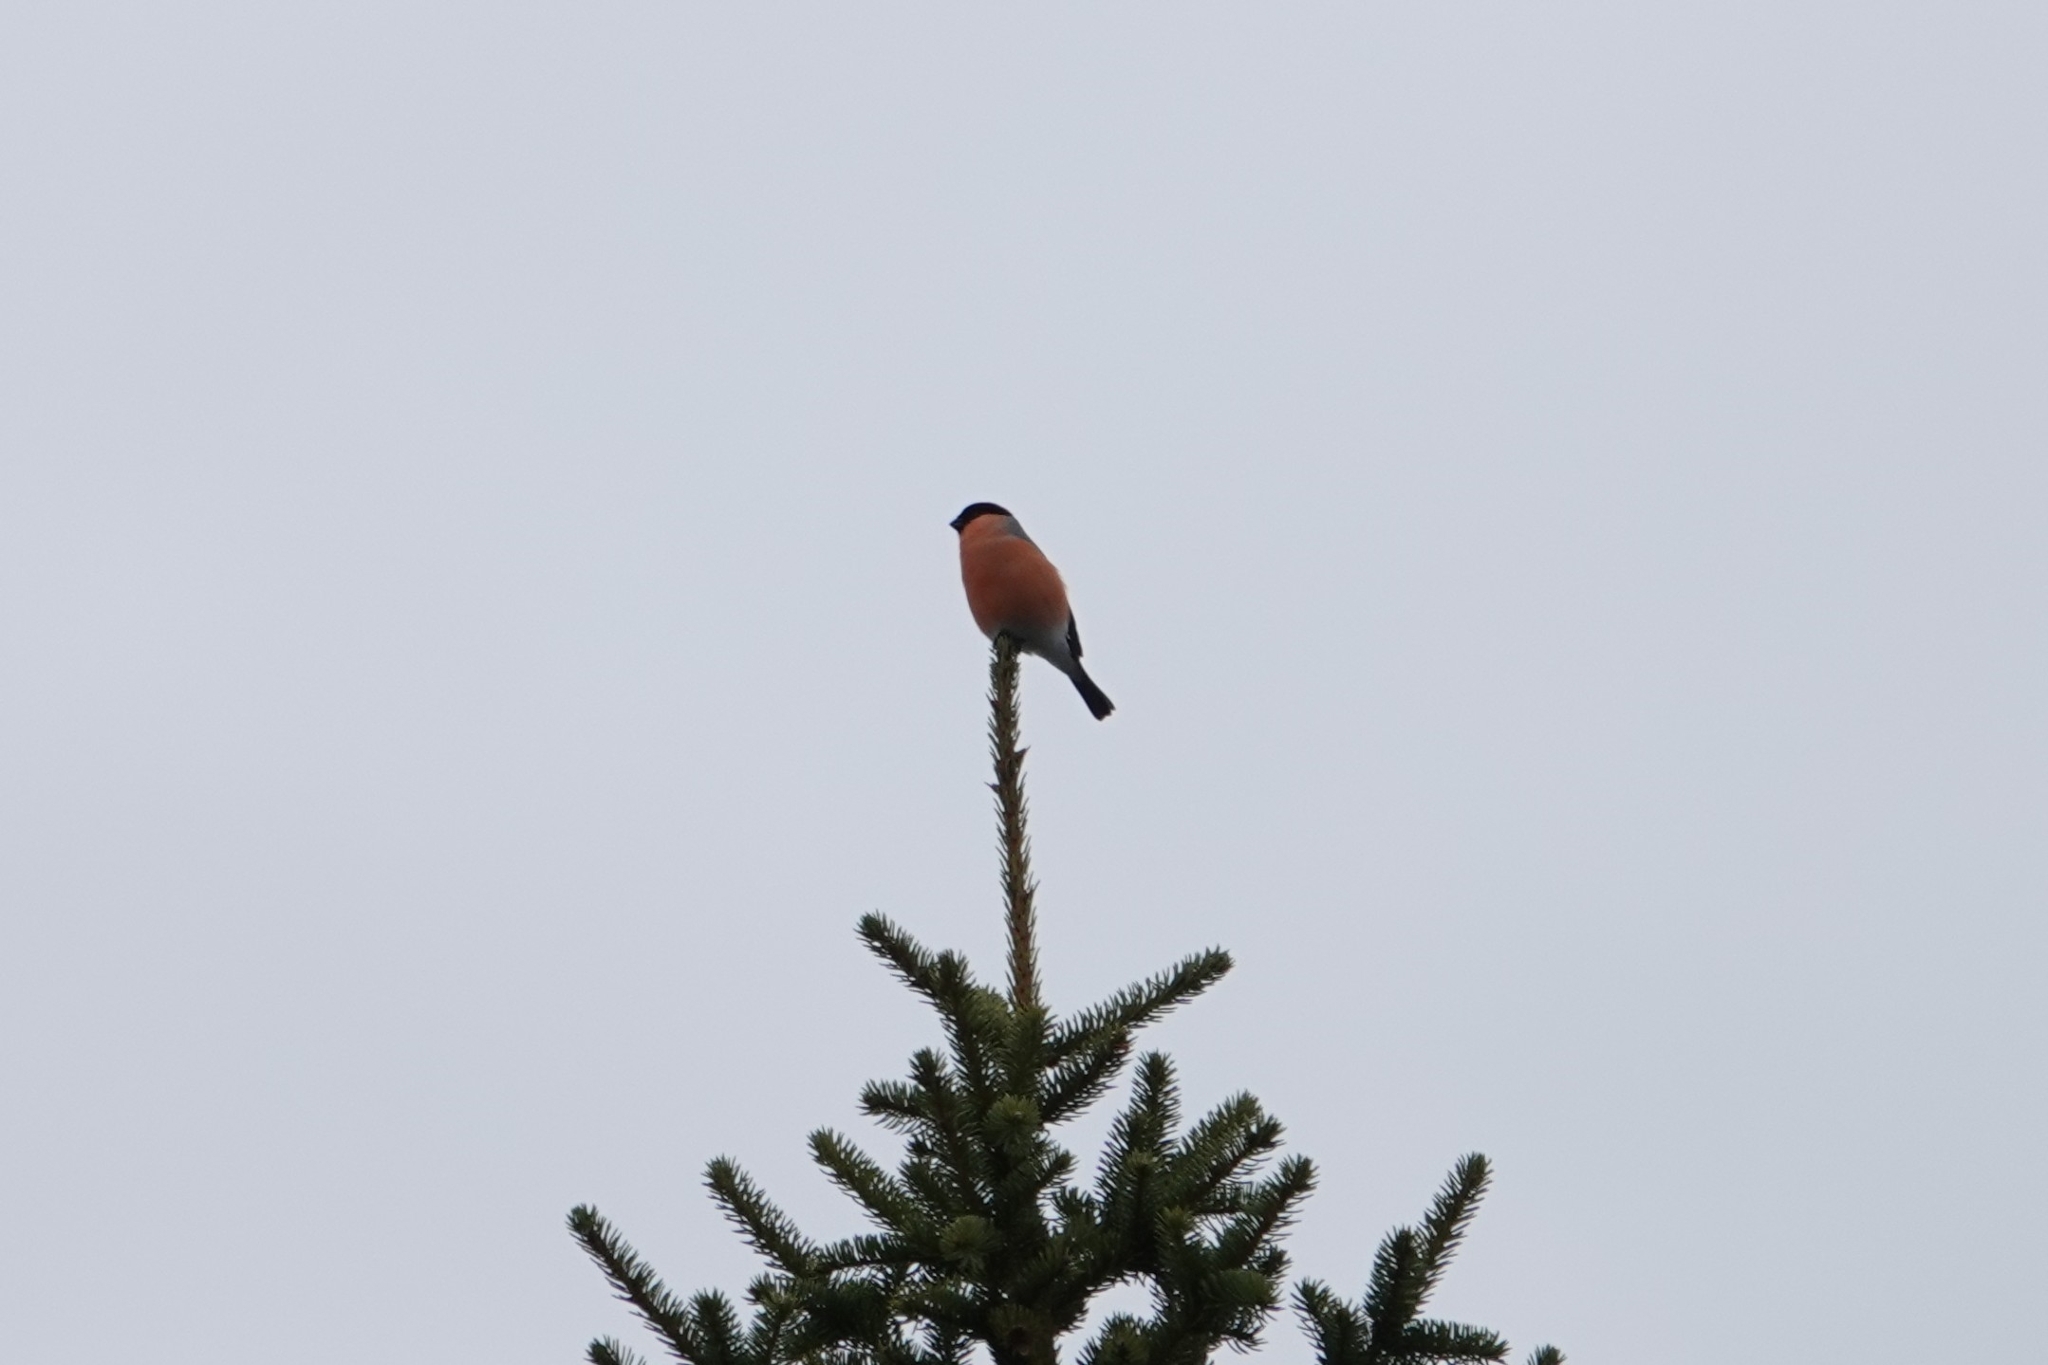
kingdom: Animalia
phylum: Chordata
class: Aves
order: Passeriformes
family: Fringillidae
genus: Pyrrhula
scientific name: Pyrrhula pyrrhula
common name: Eurasian bullfinch
